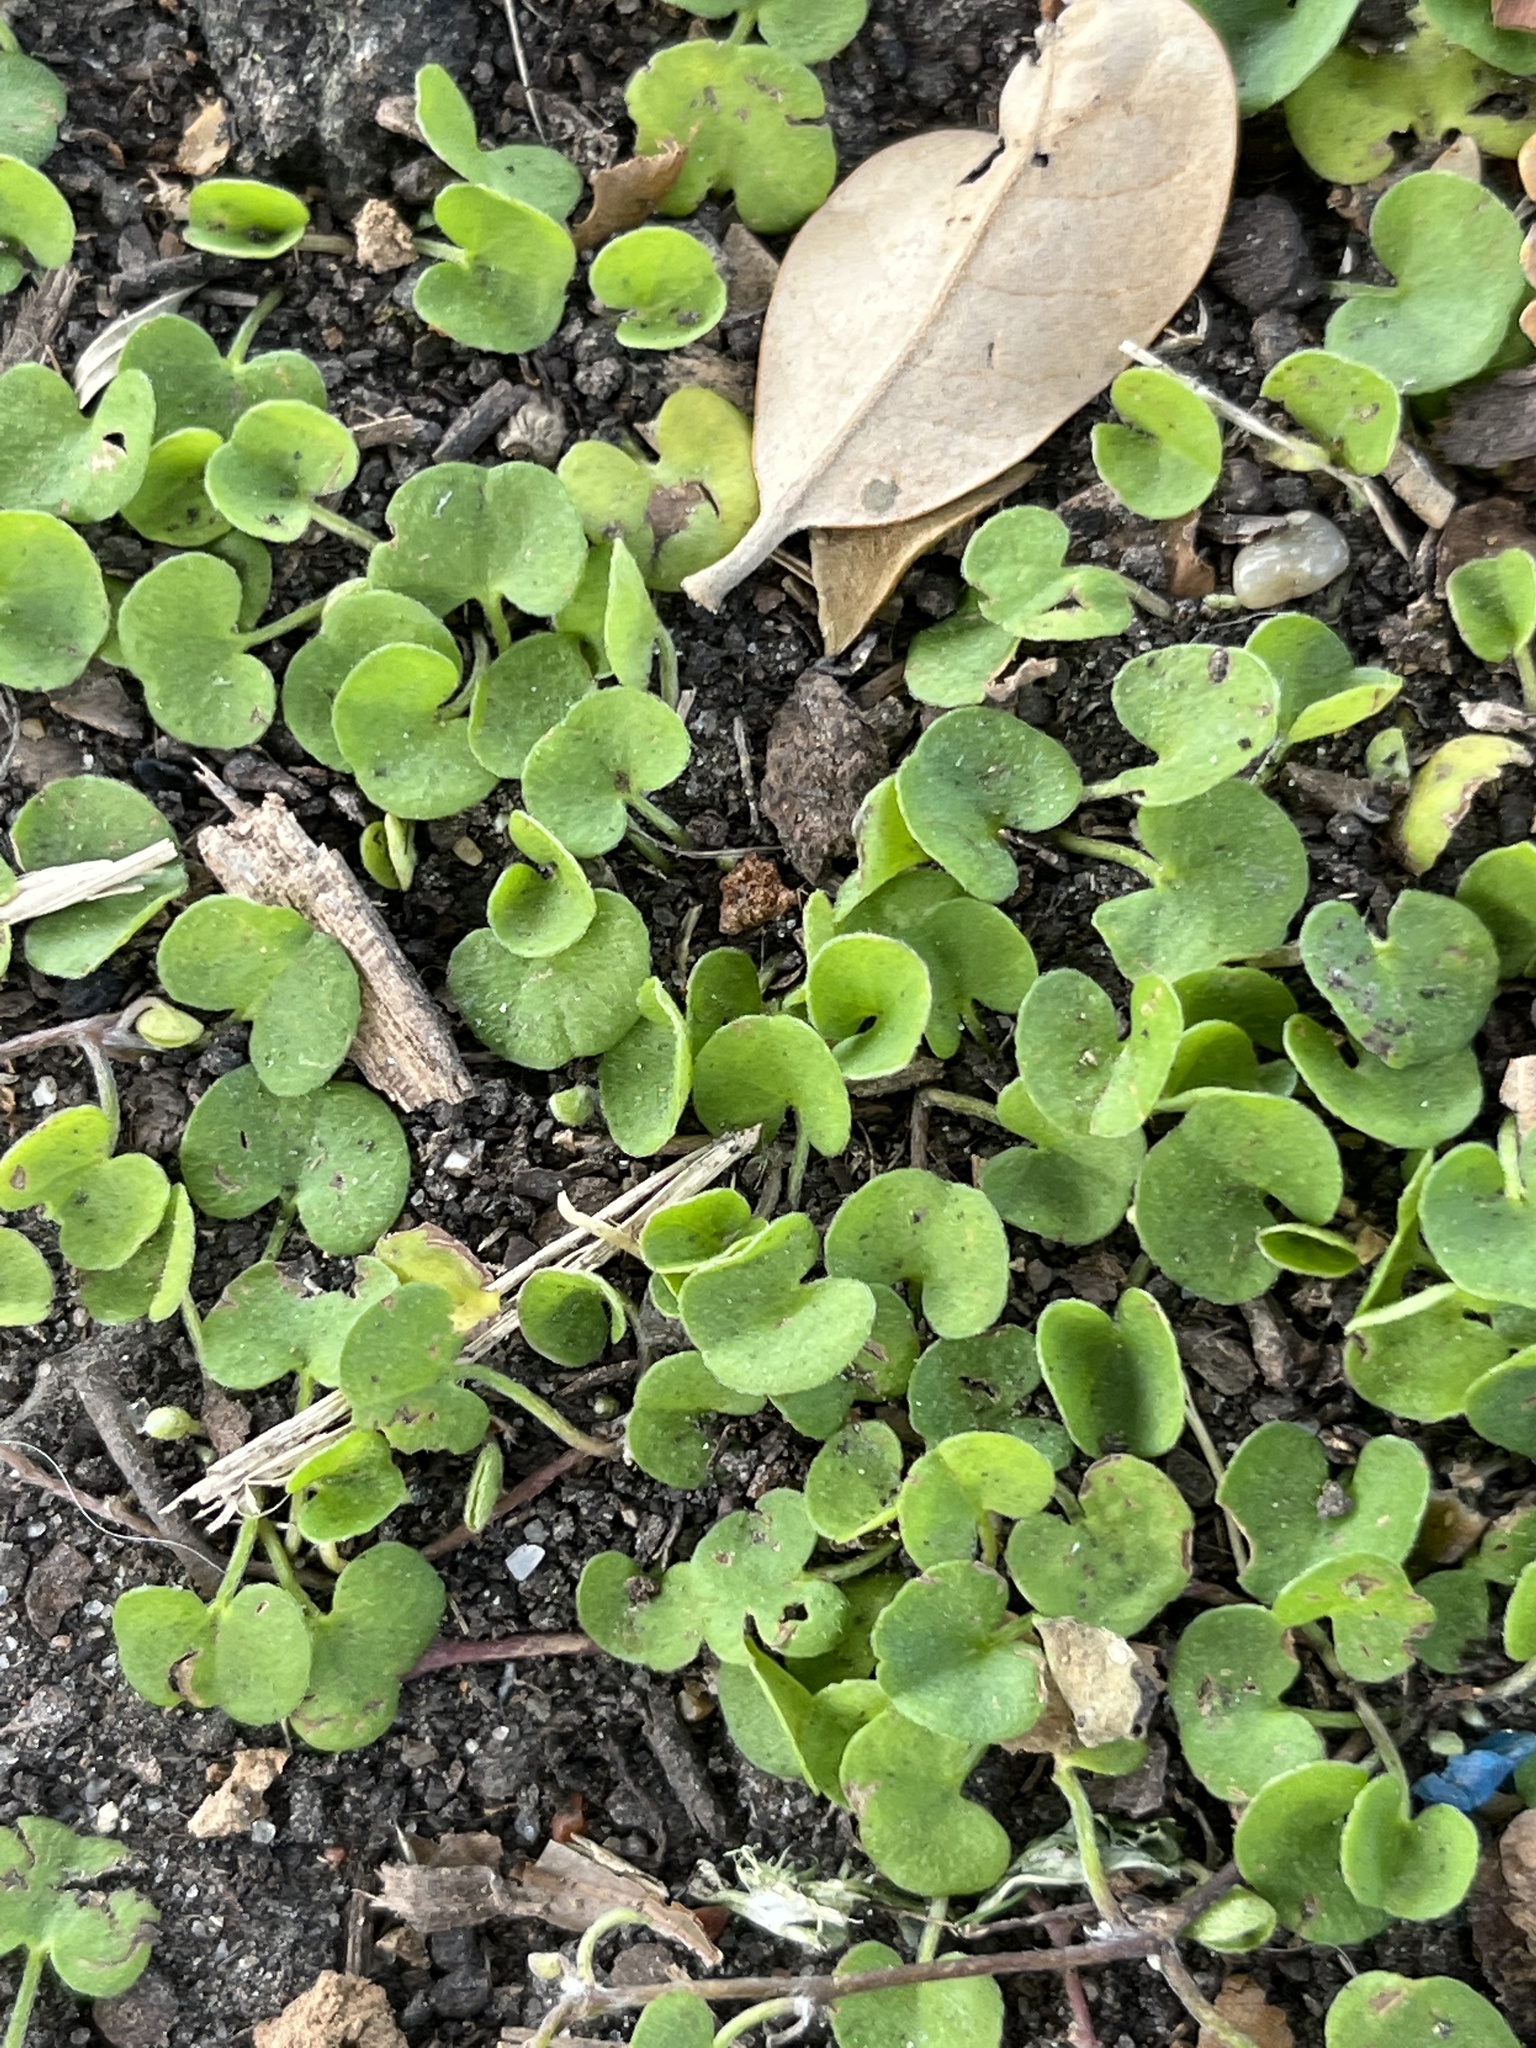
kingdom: Plantae
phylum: Tracheophyta
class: Magnoliopsida
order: Solanales
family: Convolvulaceae
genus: Dichondra
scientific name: Dichondra carolinensis
